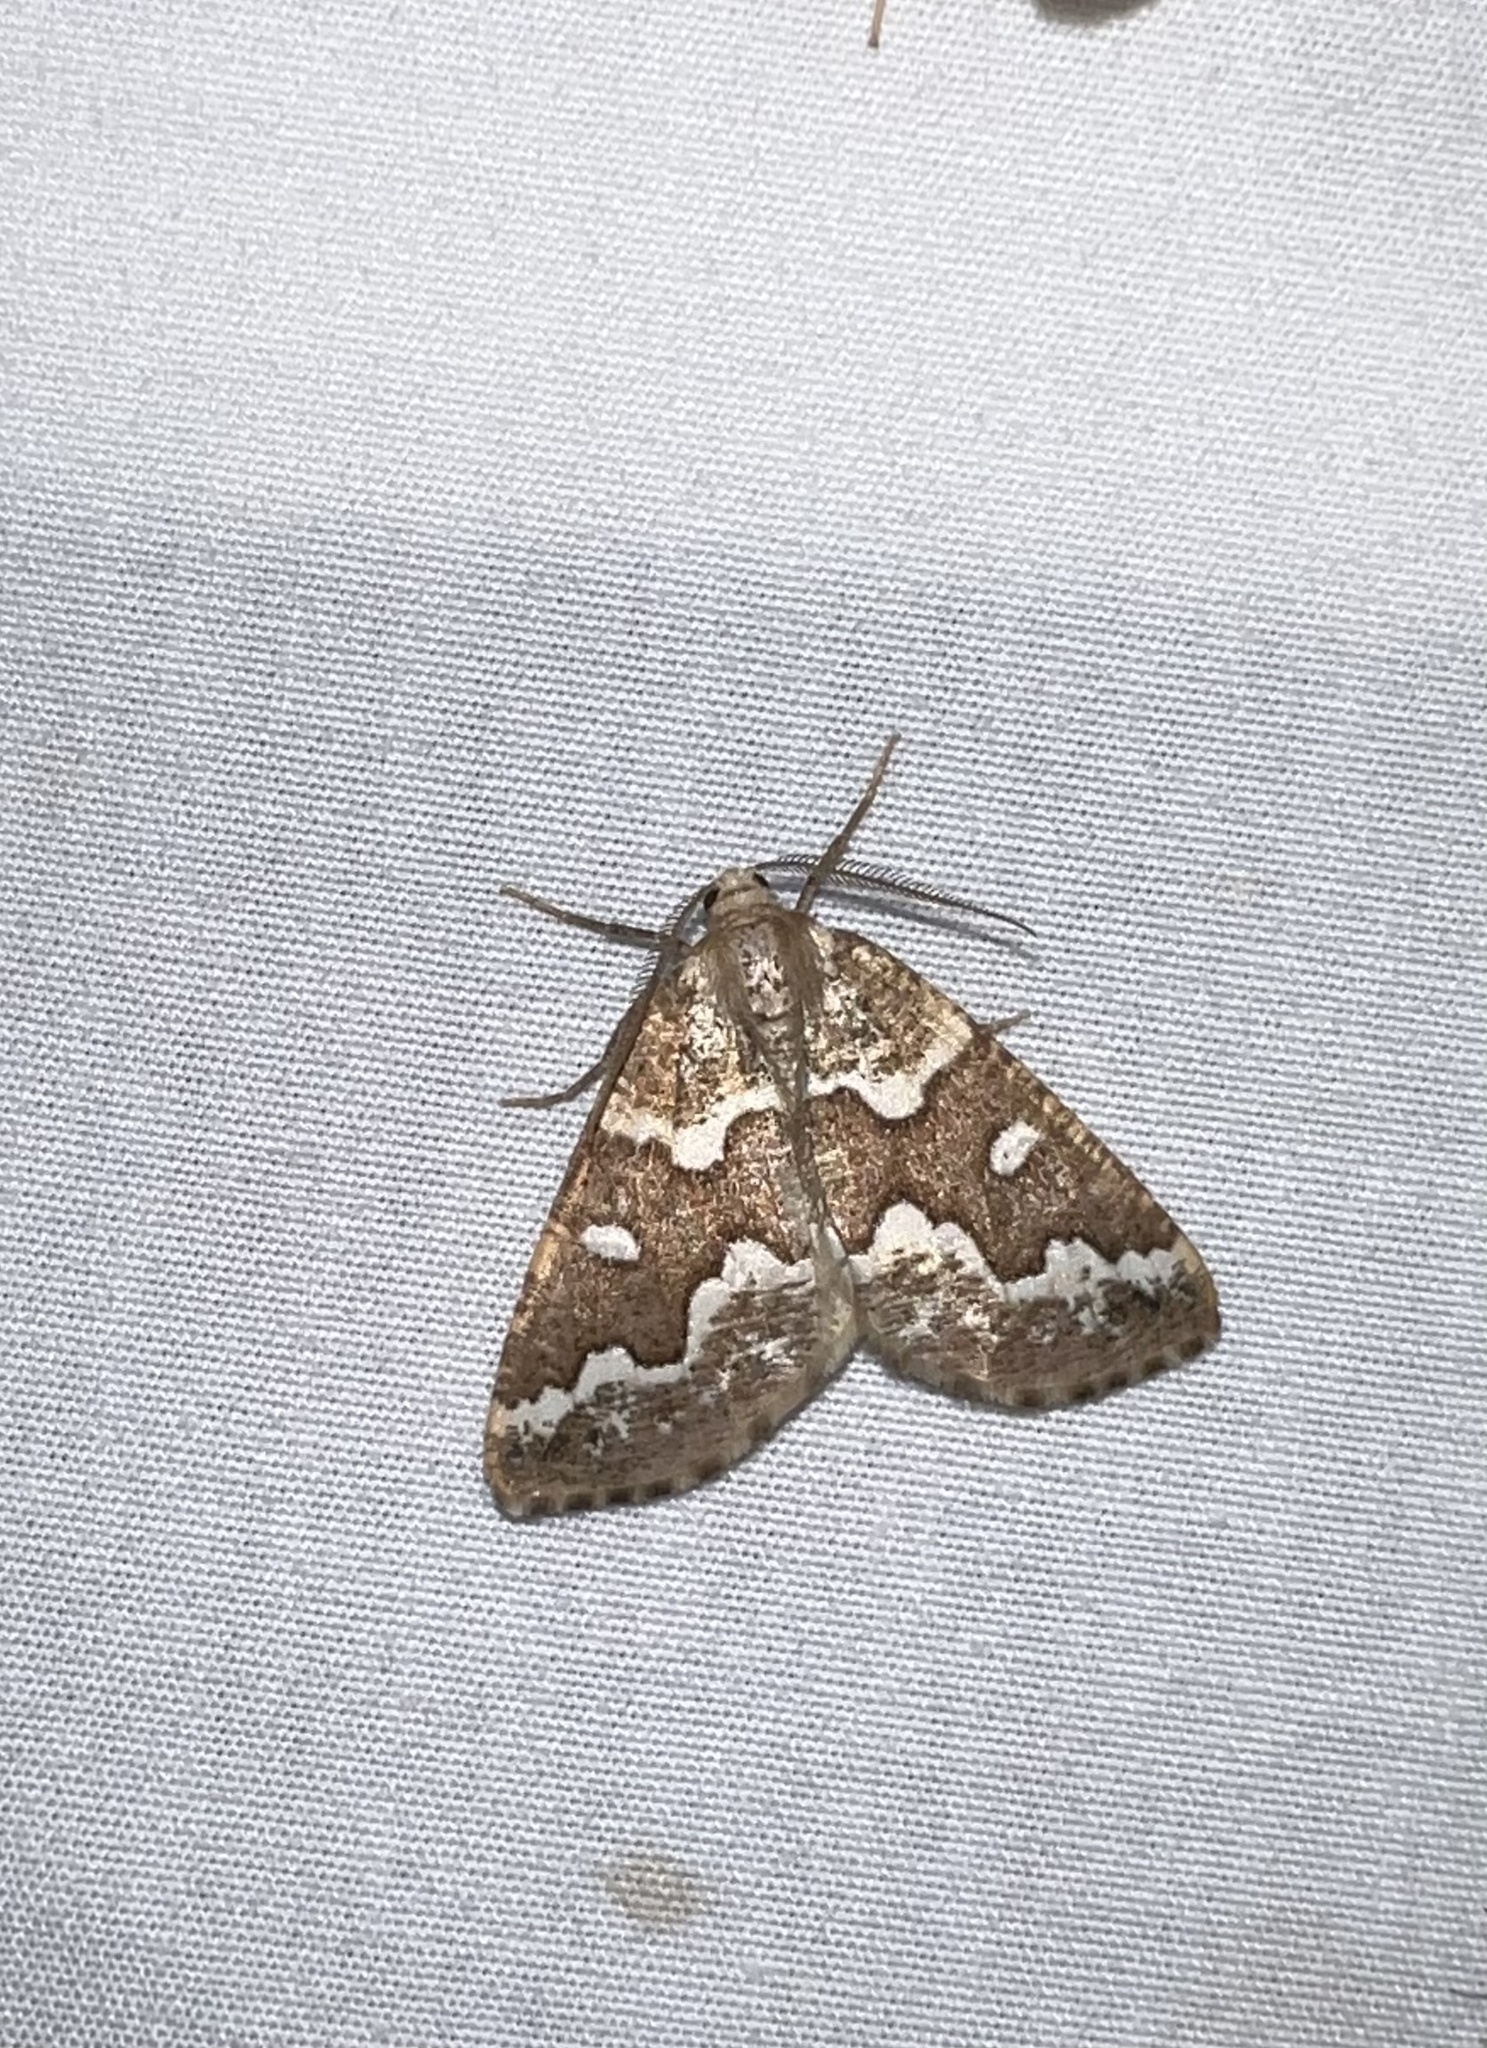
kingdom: Animalia
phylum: Arthropoda
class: Insecta
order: Lepidoptera
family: Geometridae
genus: Caripeta
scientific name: Caripeta divisata
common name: Gray spruce looper
